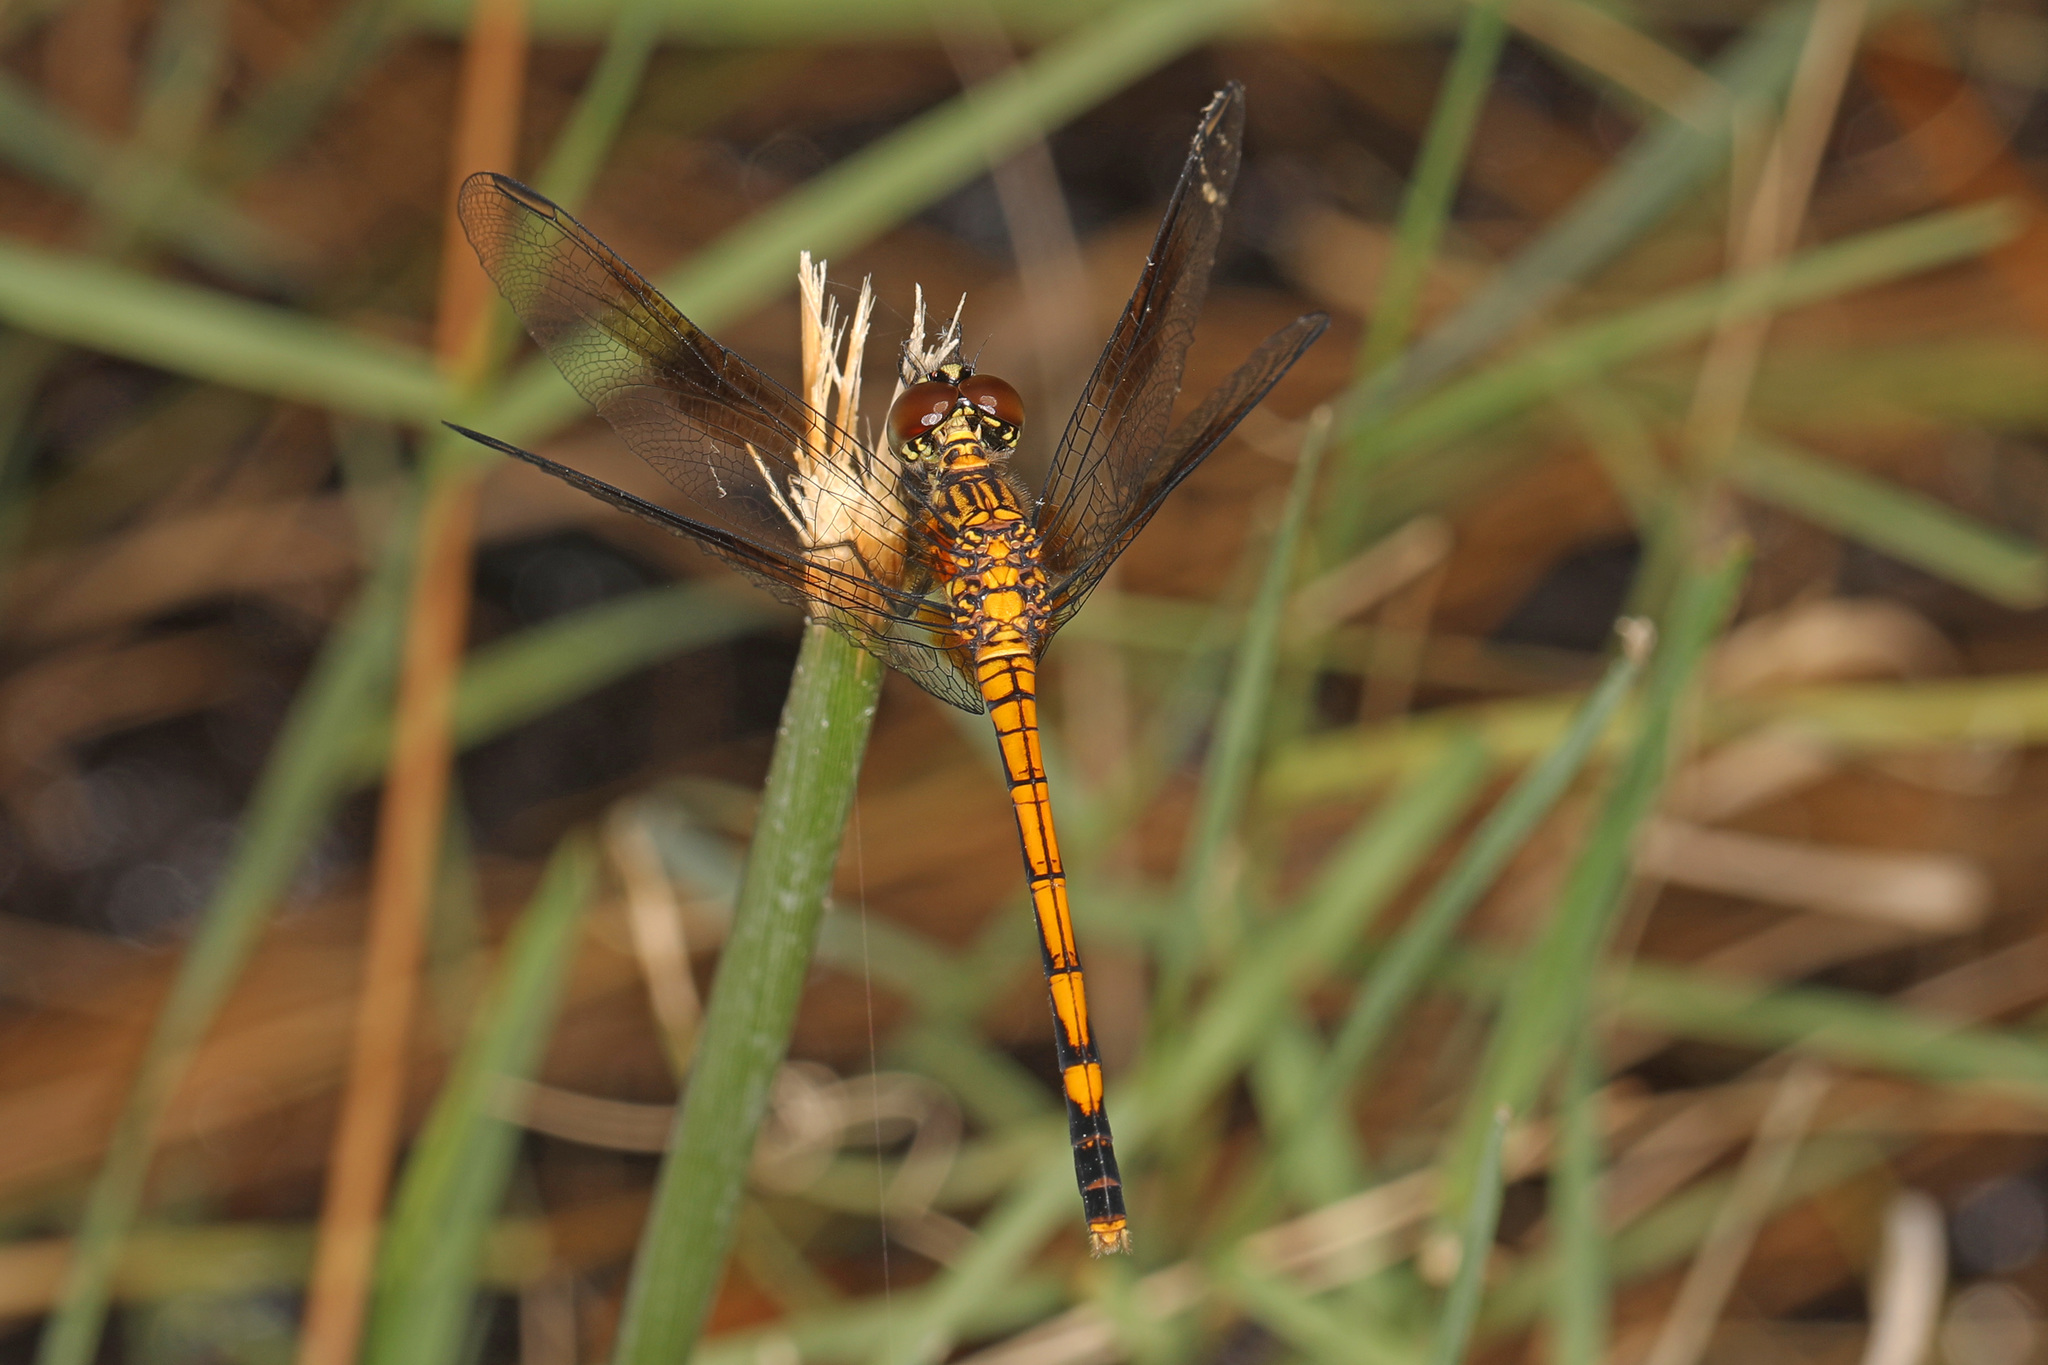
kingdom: Animalia
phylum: Arthropoda
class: Insecta
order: Odonata
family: Libellulidae
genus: Erythrodiplax
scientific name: Erythrodiplax berenice
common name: Seaside dragonlet
